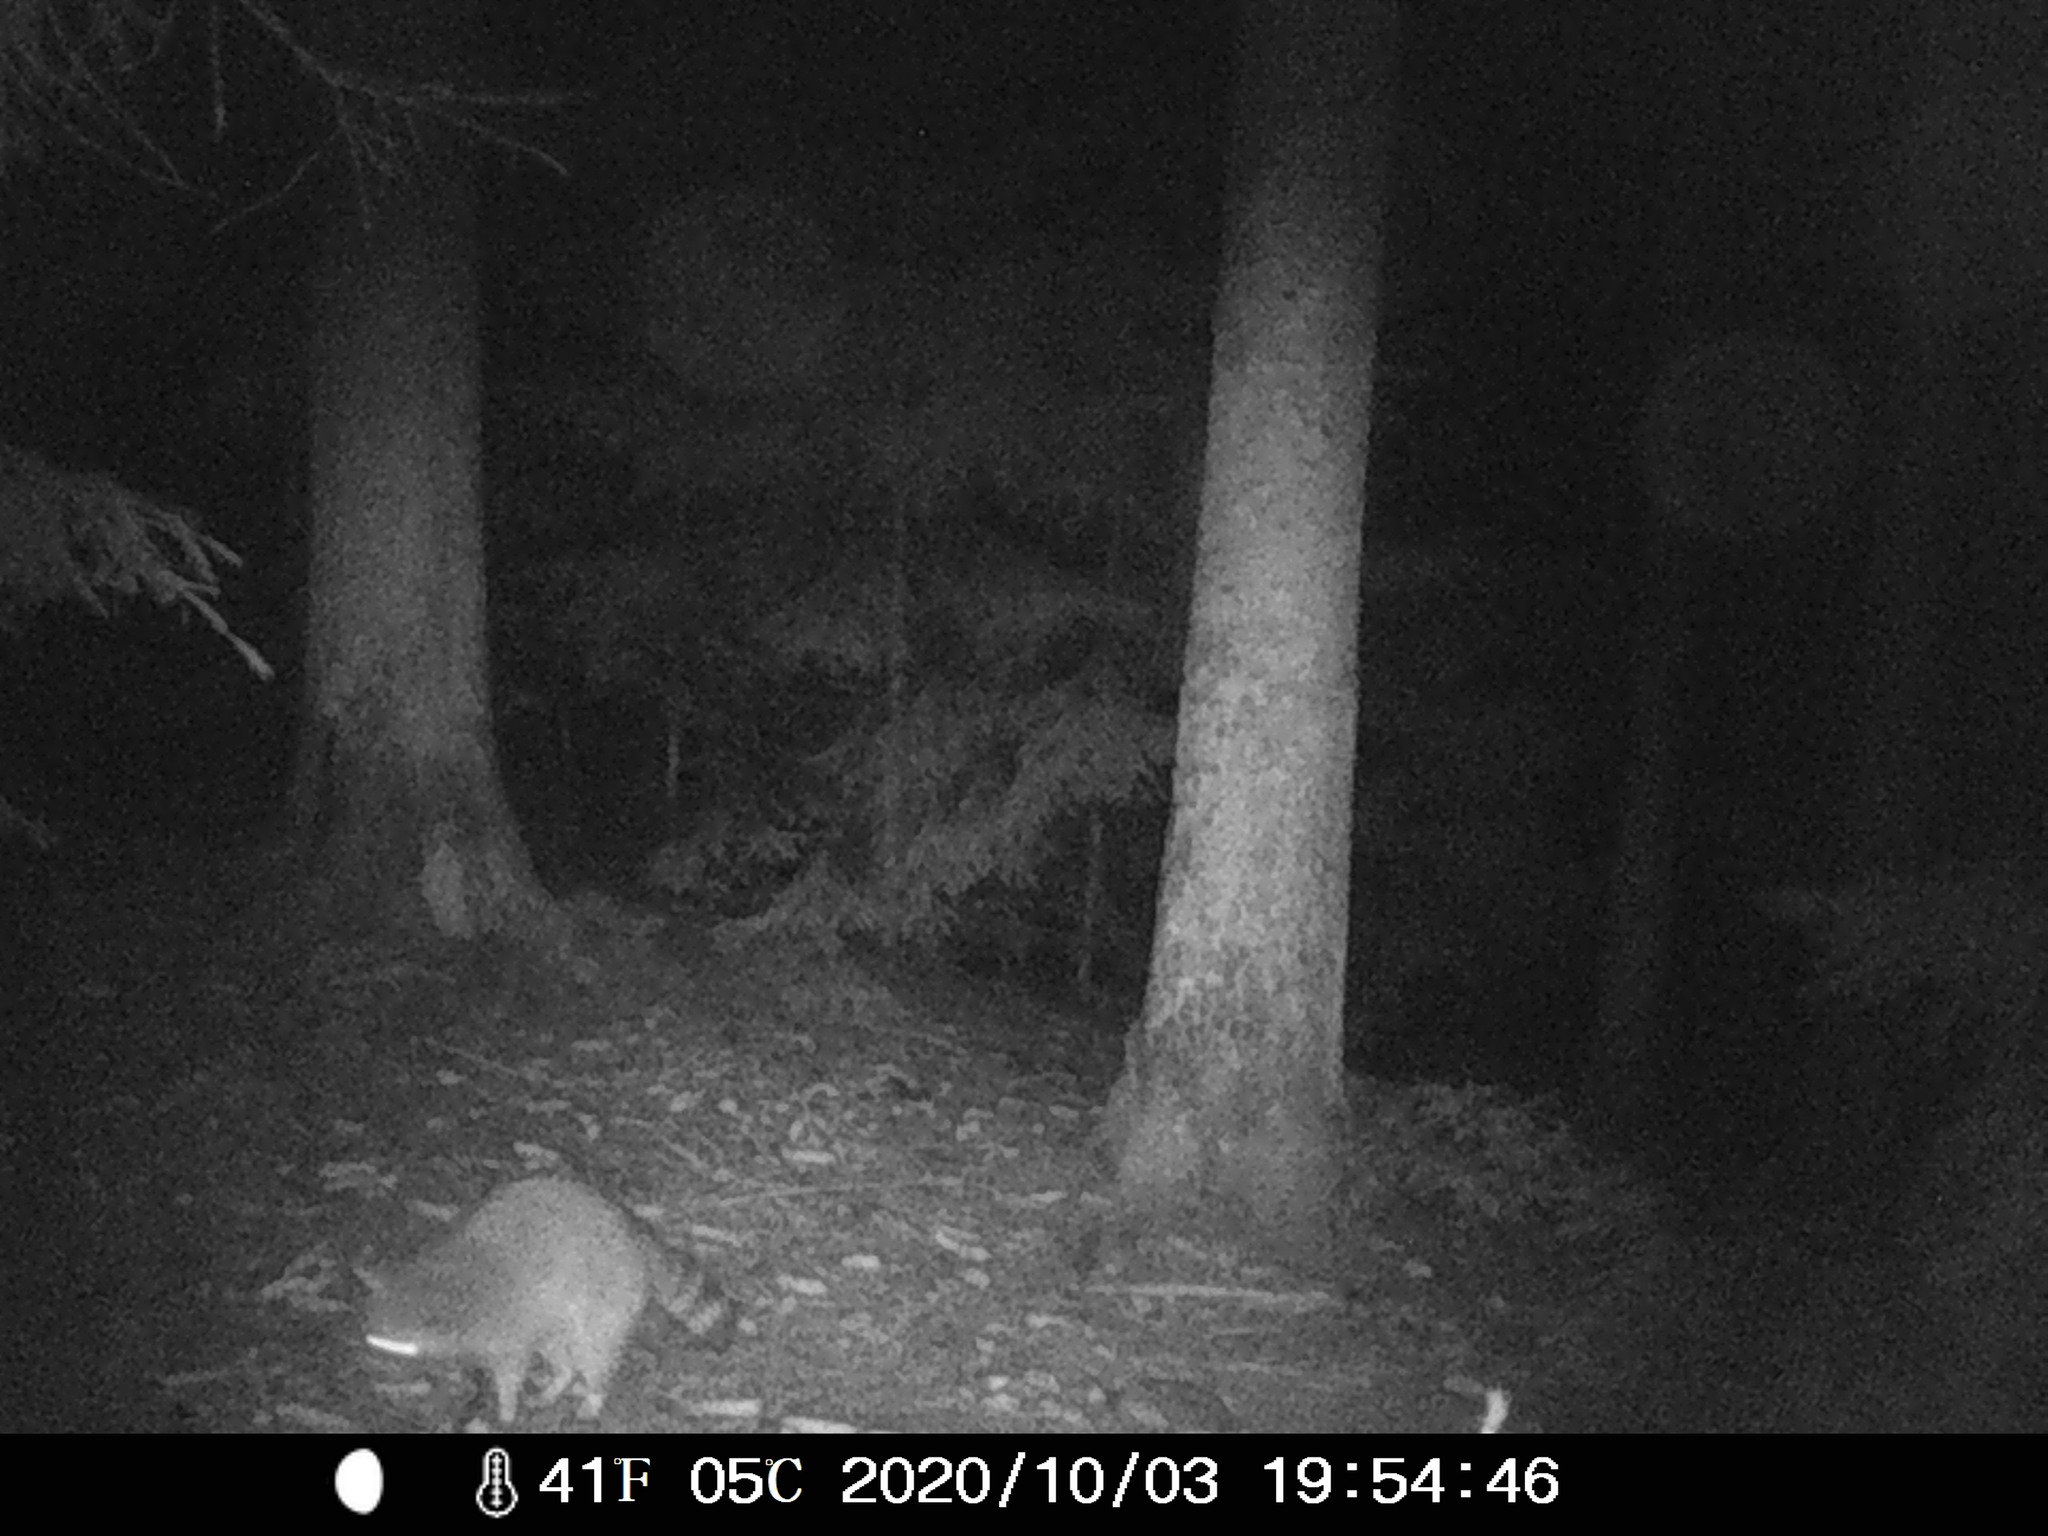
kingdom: Animalia
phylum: Chordata
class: Mammalia
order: Carnivora
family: Procyonidae
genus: Procyon
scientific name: Procyon lotor
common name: Raccoon
